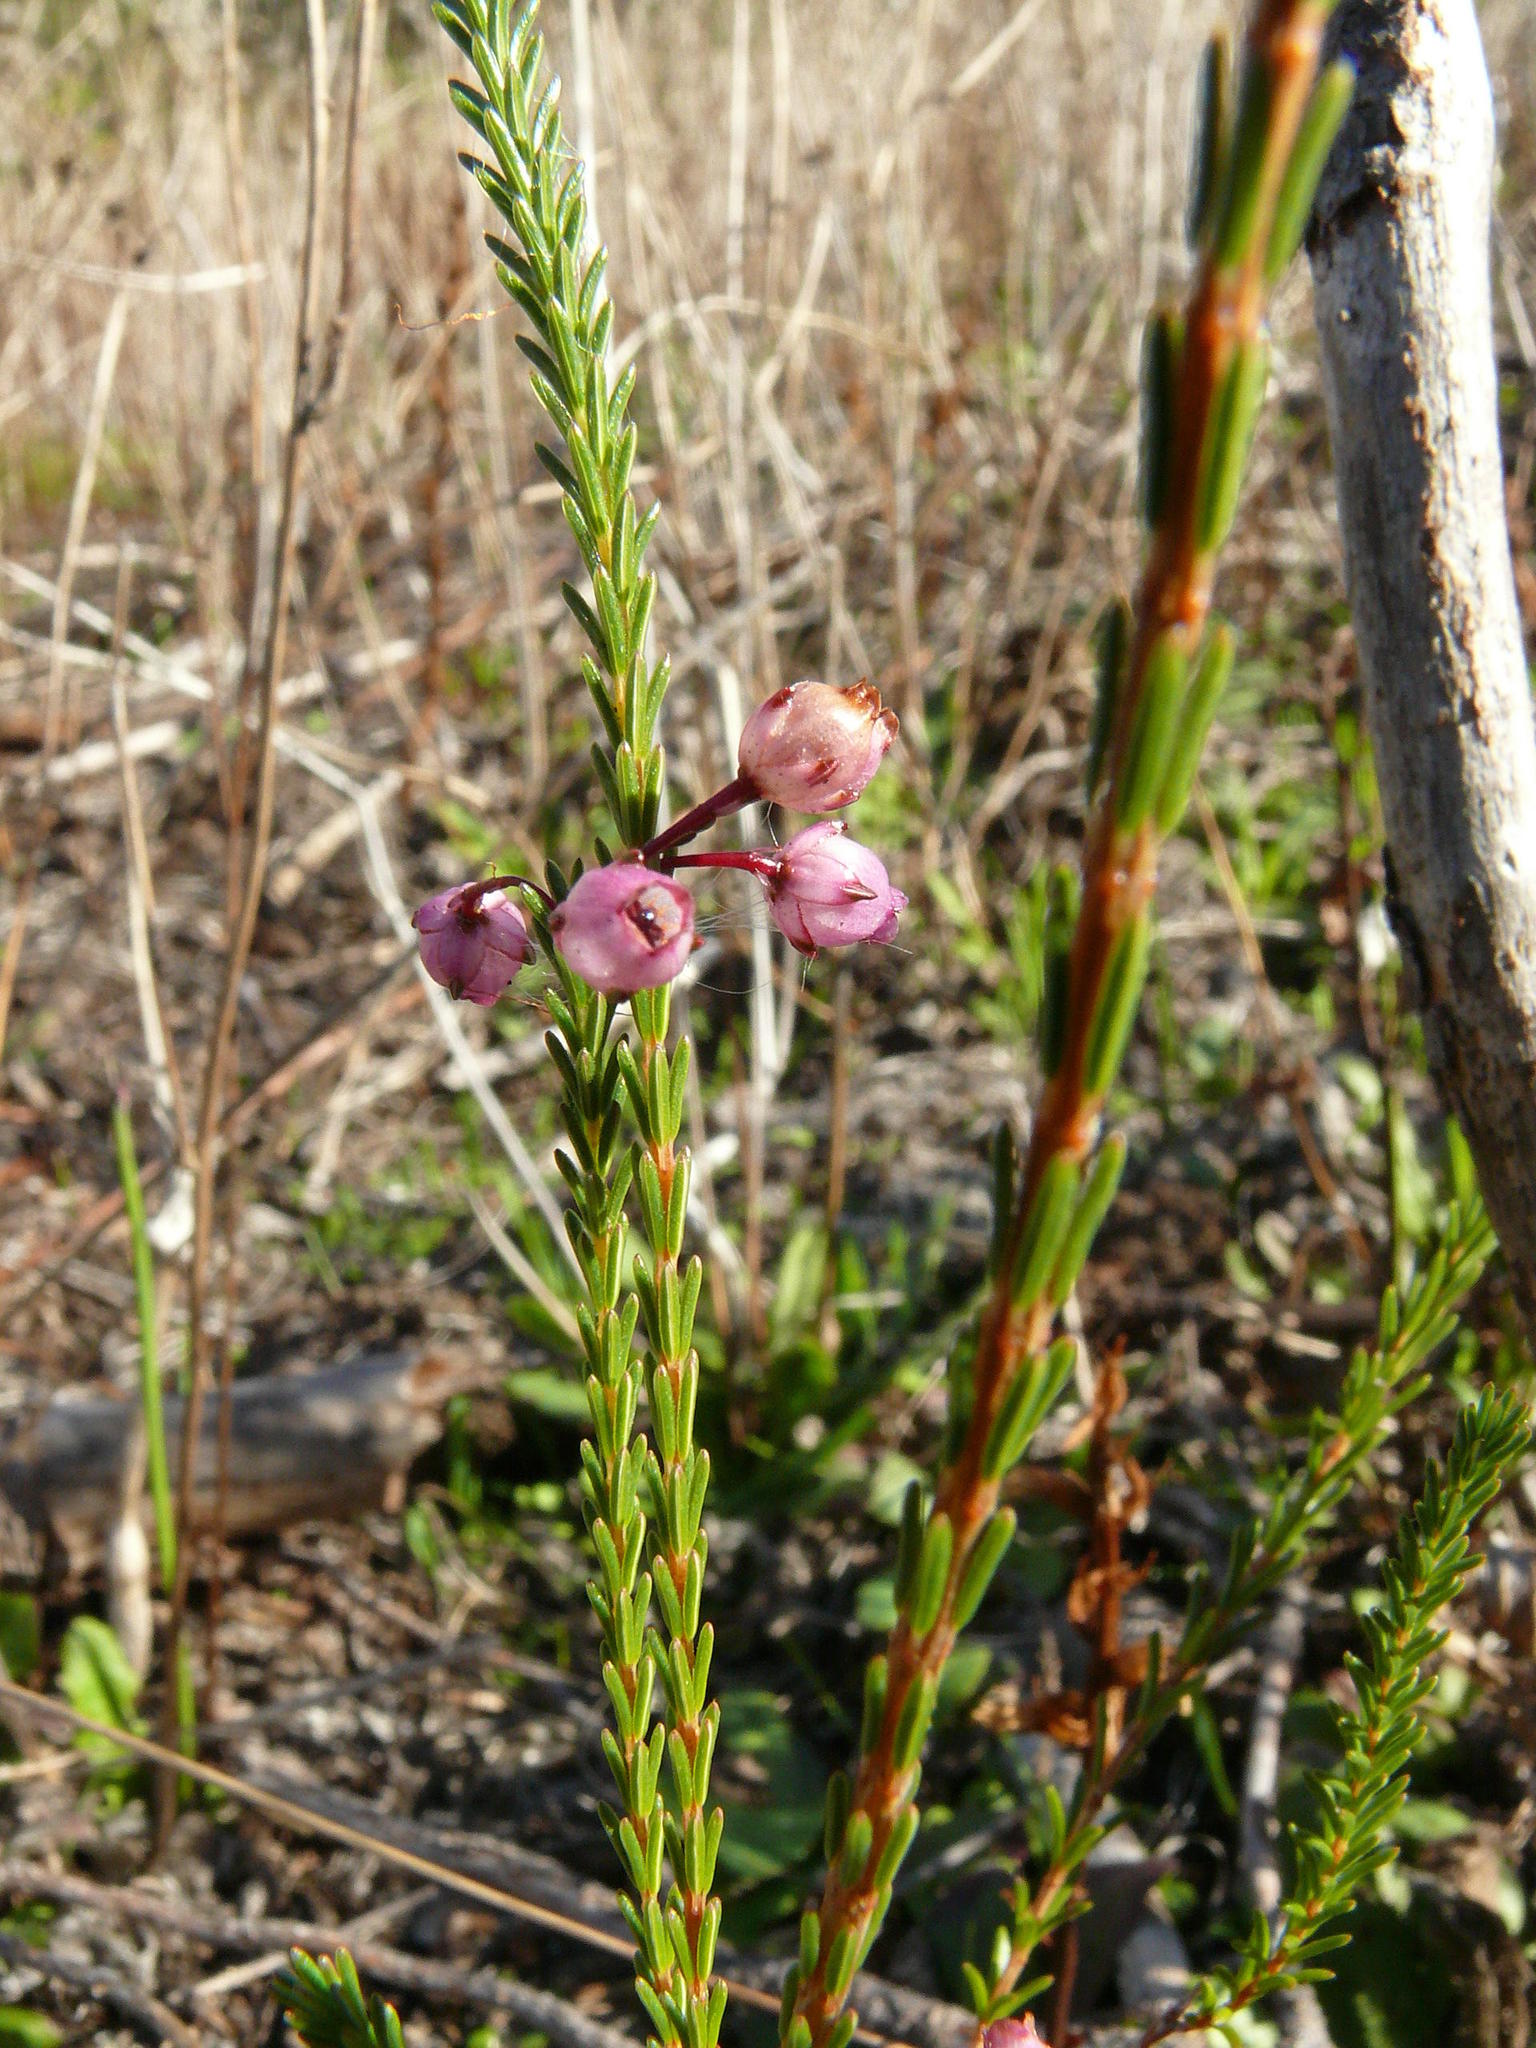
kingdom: Plantae
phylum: Tracheophyta
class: Magnoliopsida
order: Ericales
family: Ericaceae
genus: Erica
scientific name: Erica ferrea
